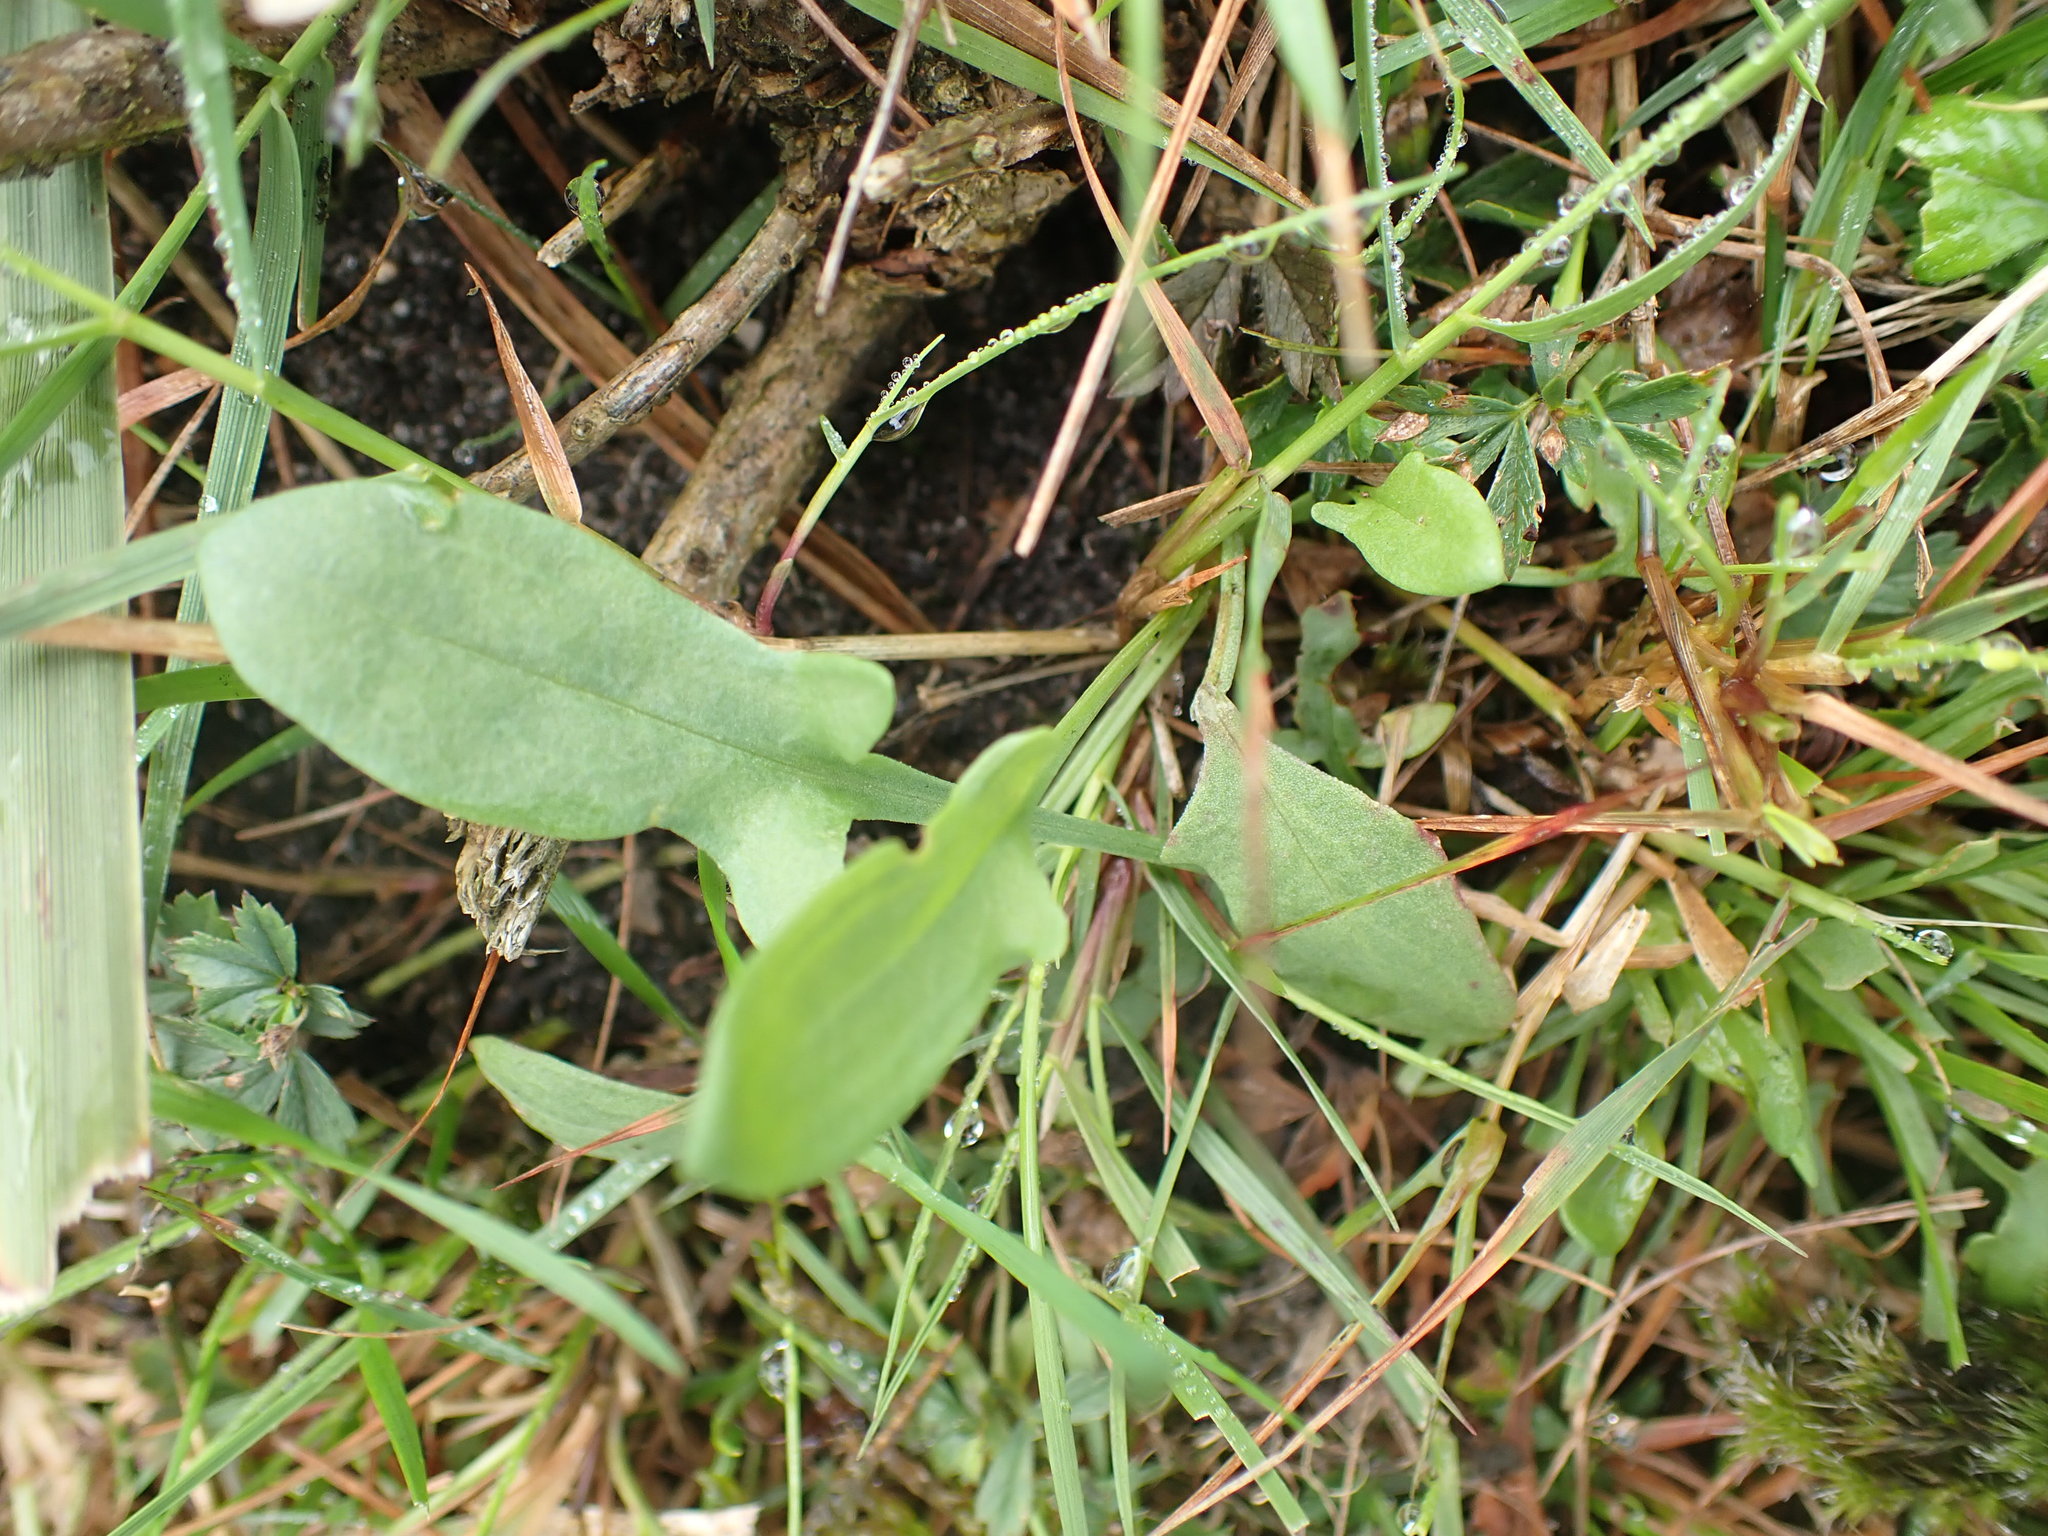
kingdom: Plantae
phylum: Tracheophyta
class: Magnoliopsida
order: Caryophyllales
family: Polygonaceae
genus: Rumex
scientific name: Rumex acetosella
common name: Common sheep sorrel
